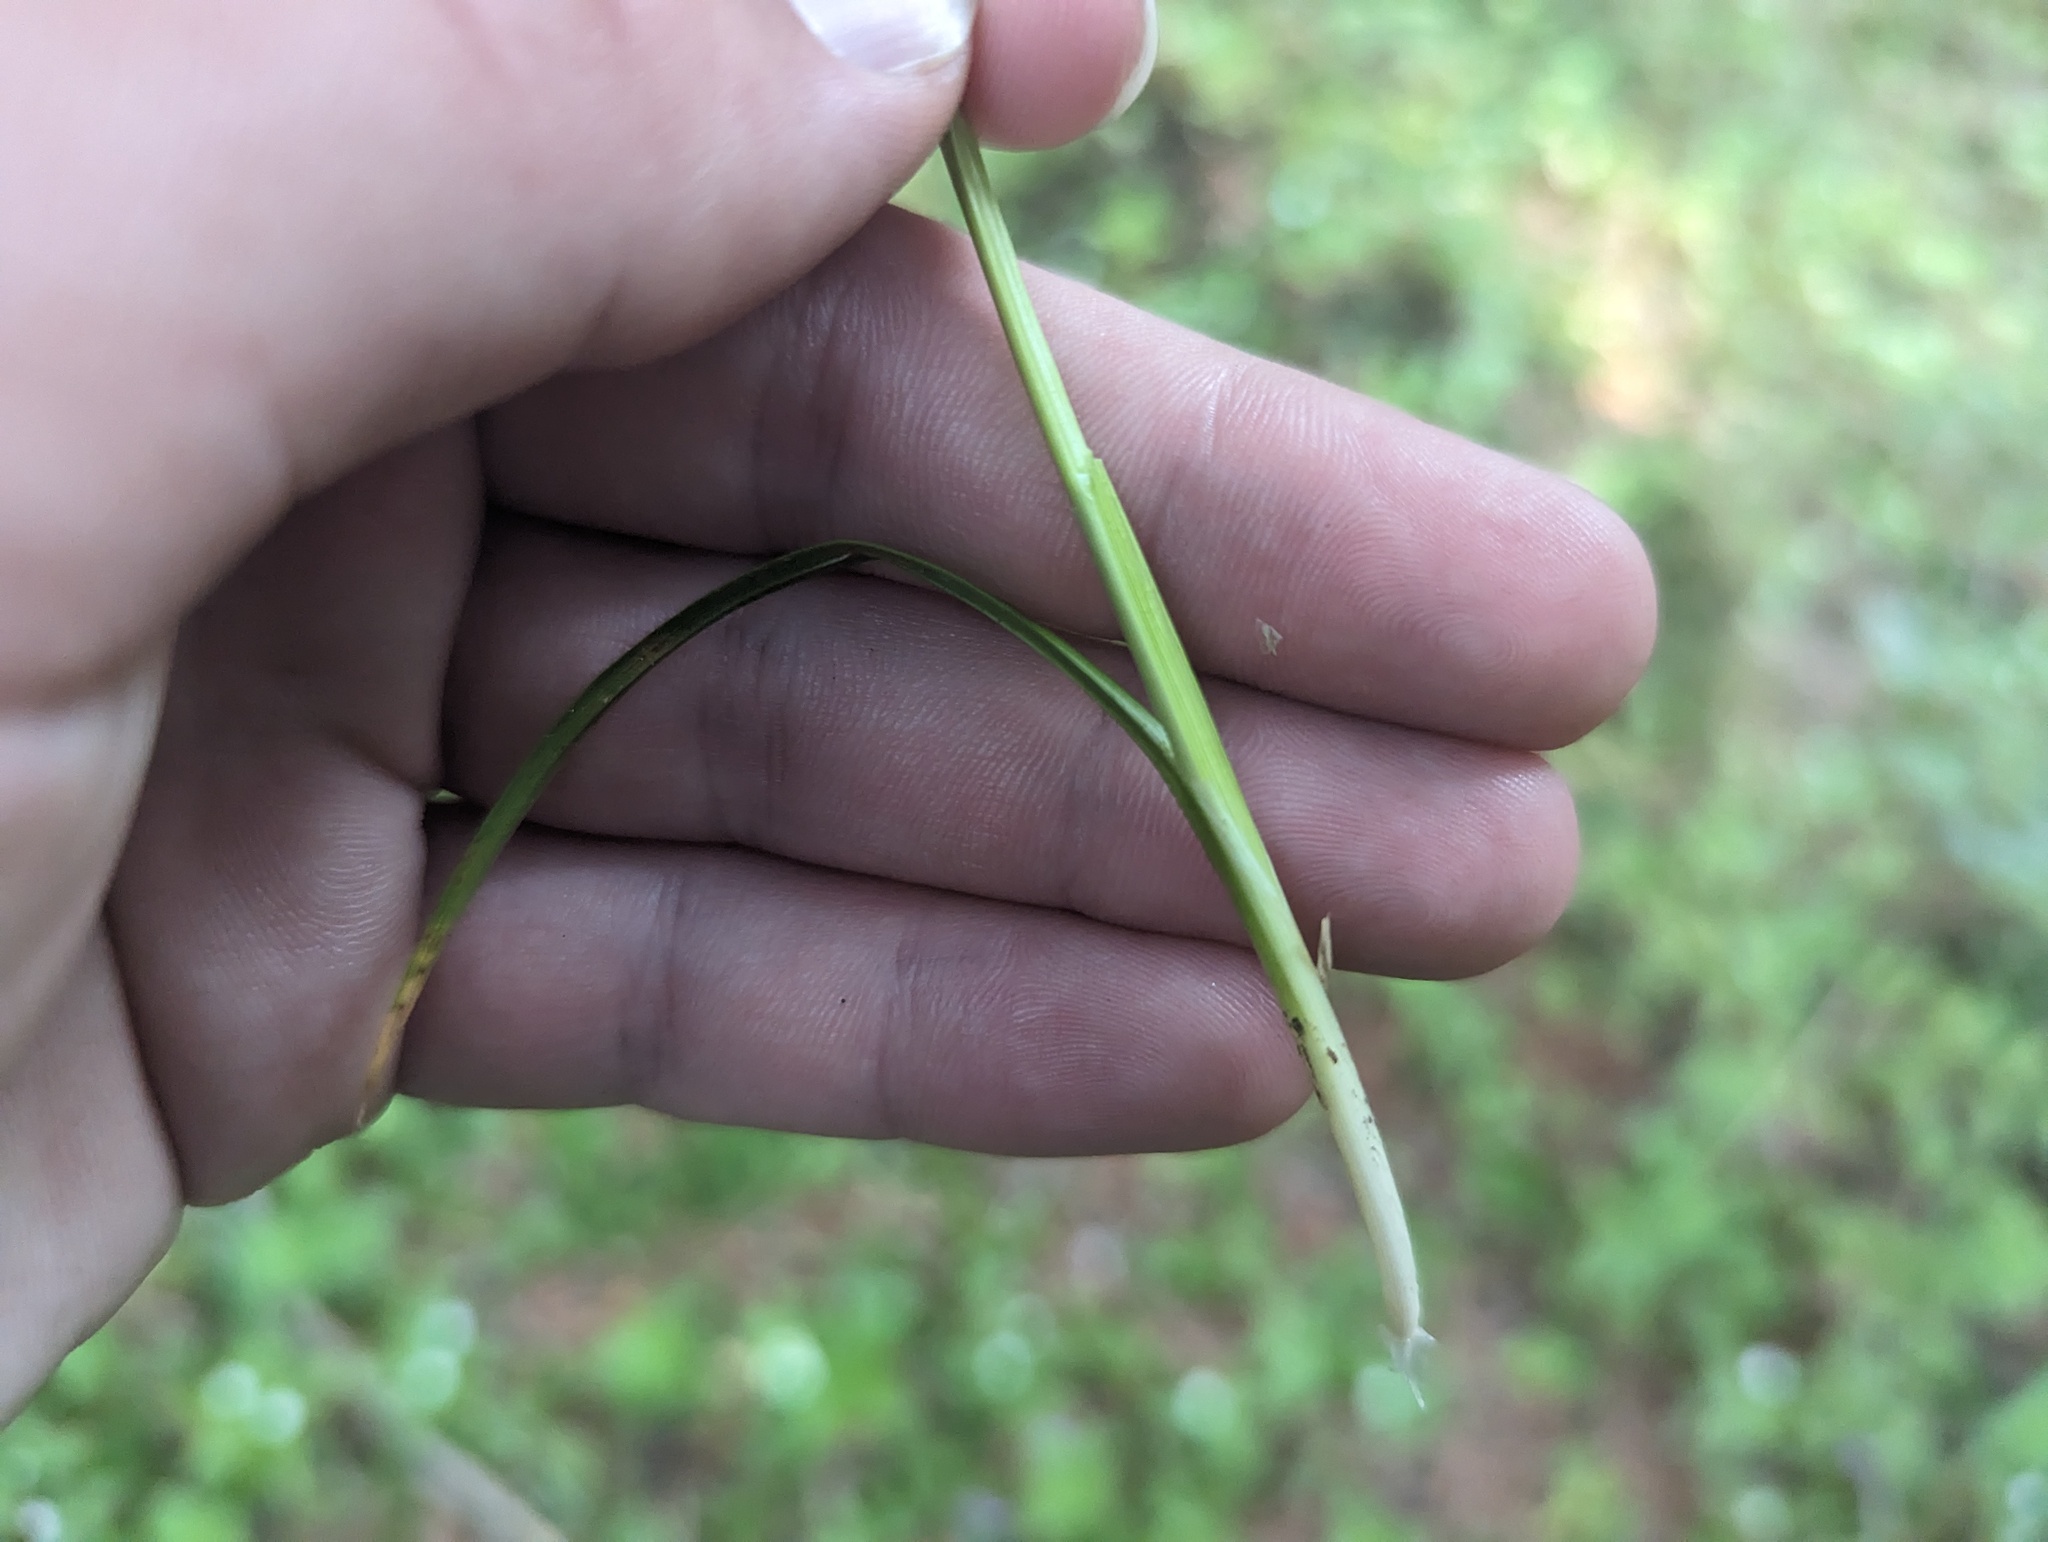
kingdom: Plantae
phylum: Tracheophyta
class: Liliopsida
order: Poales
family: Cyperaceae
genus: Carex
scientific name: Carex flava
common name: Large yellow-sedge
